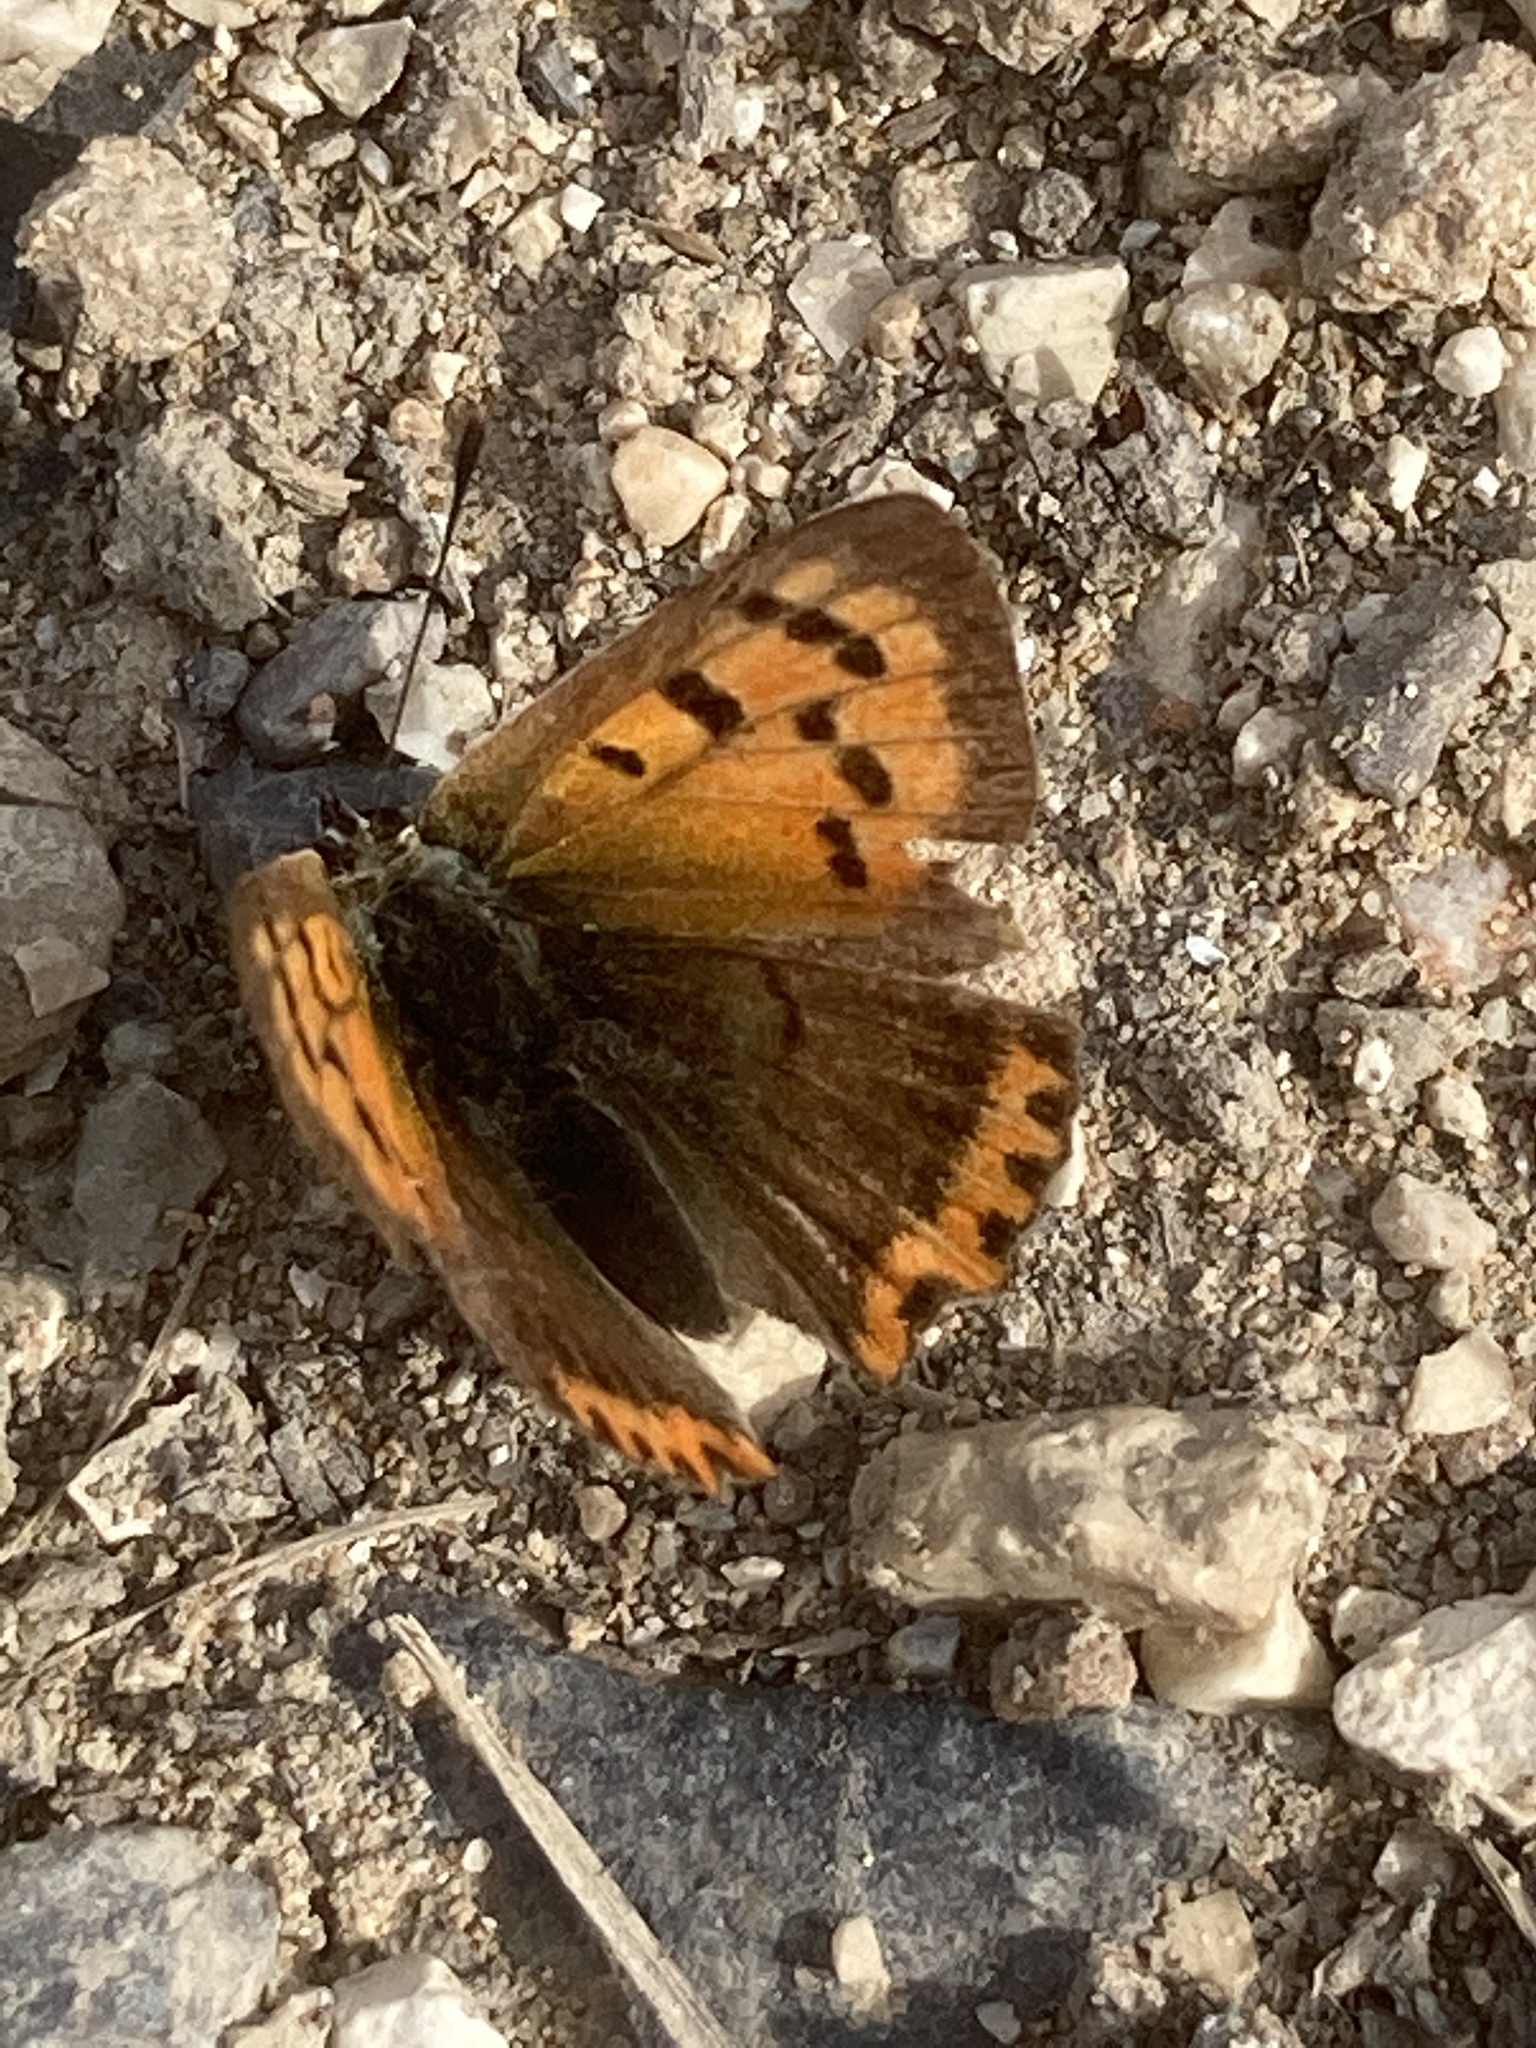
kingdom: Animalia
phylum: Arthropoda
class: Insecta
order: Lepidoptera
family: Lycaenidae
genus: Lycaena
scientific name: Lycaena phlaeas
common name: Small copper
